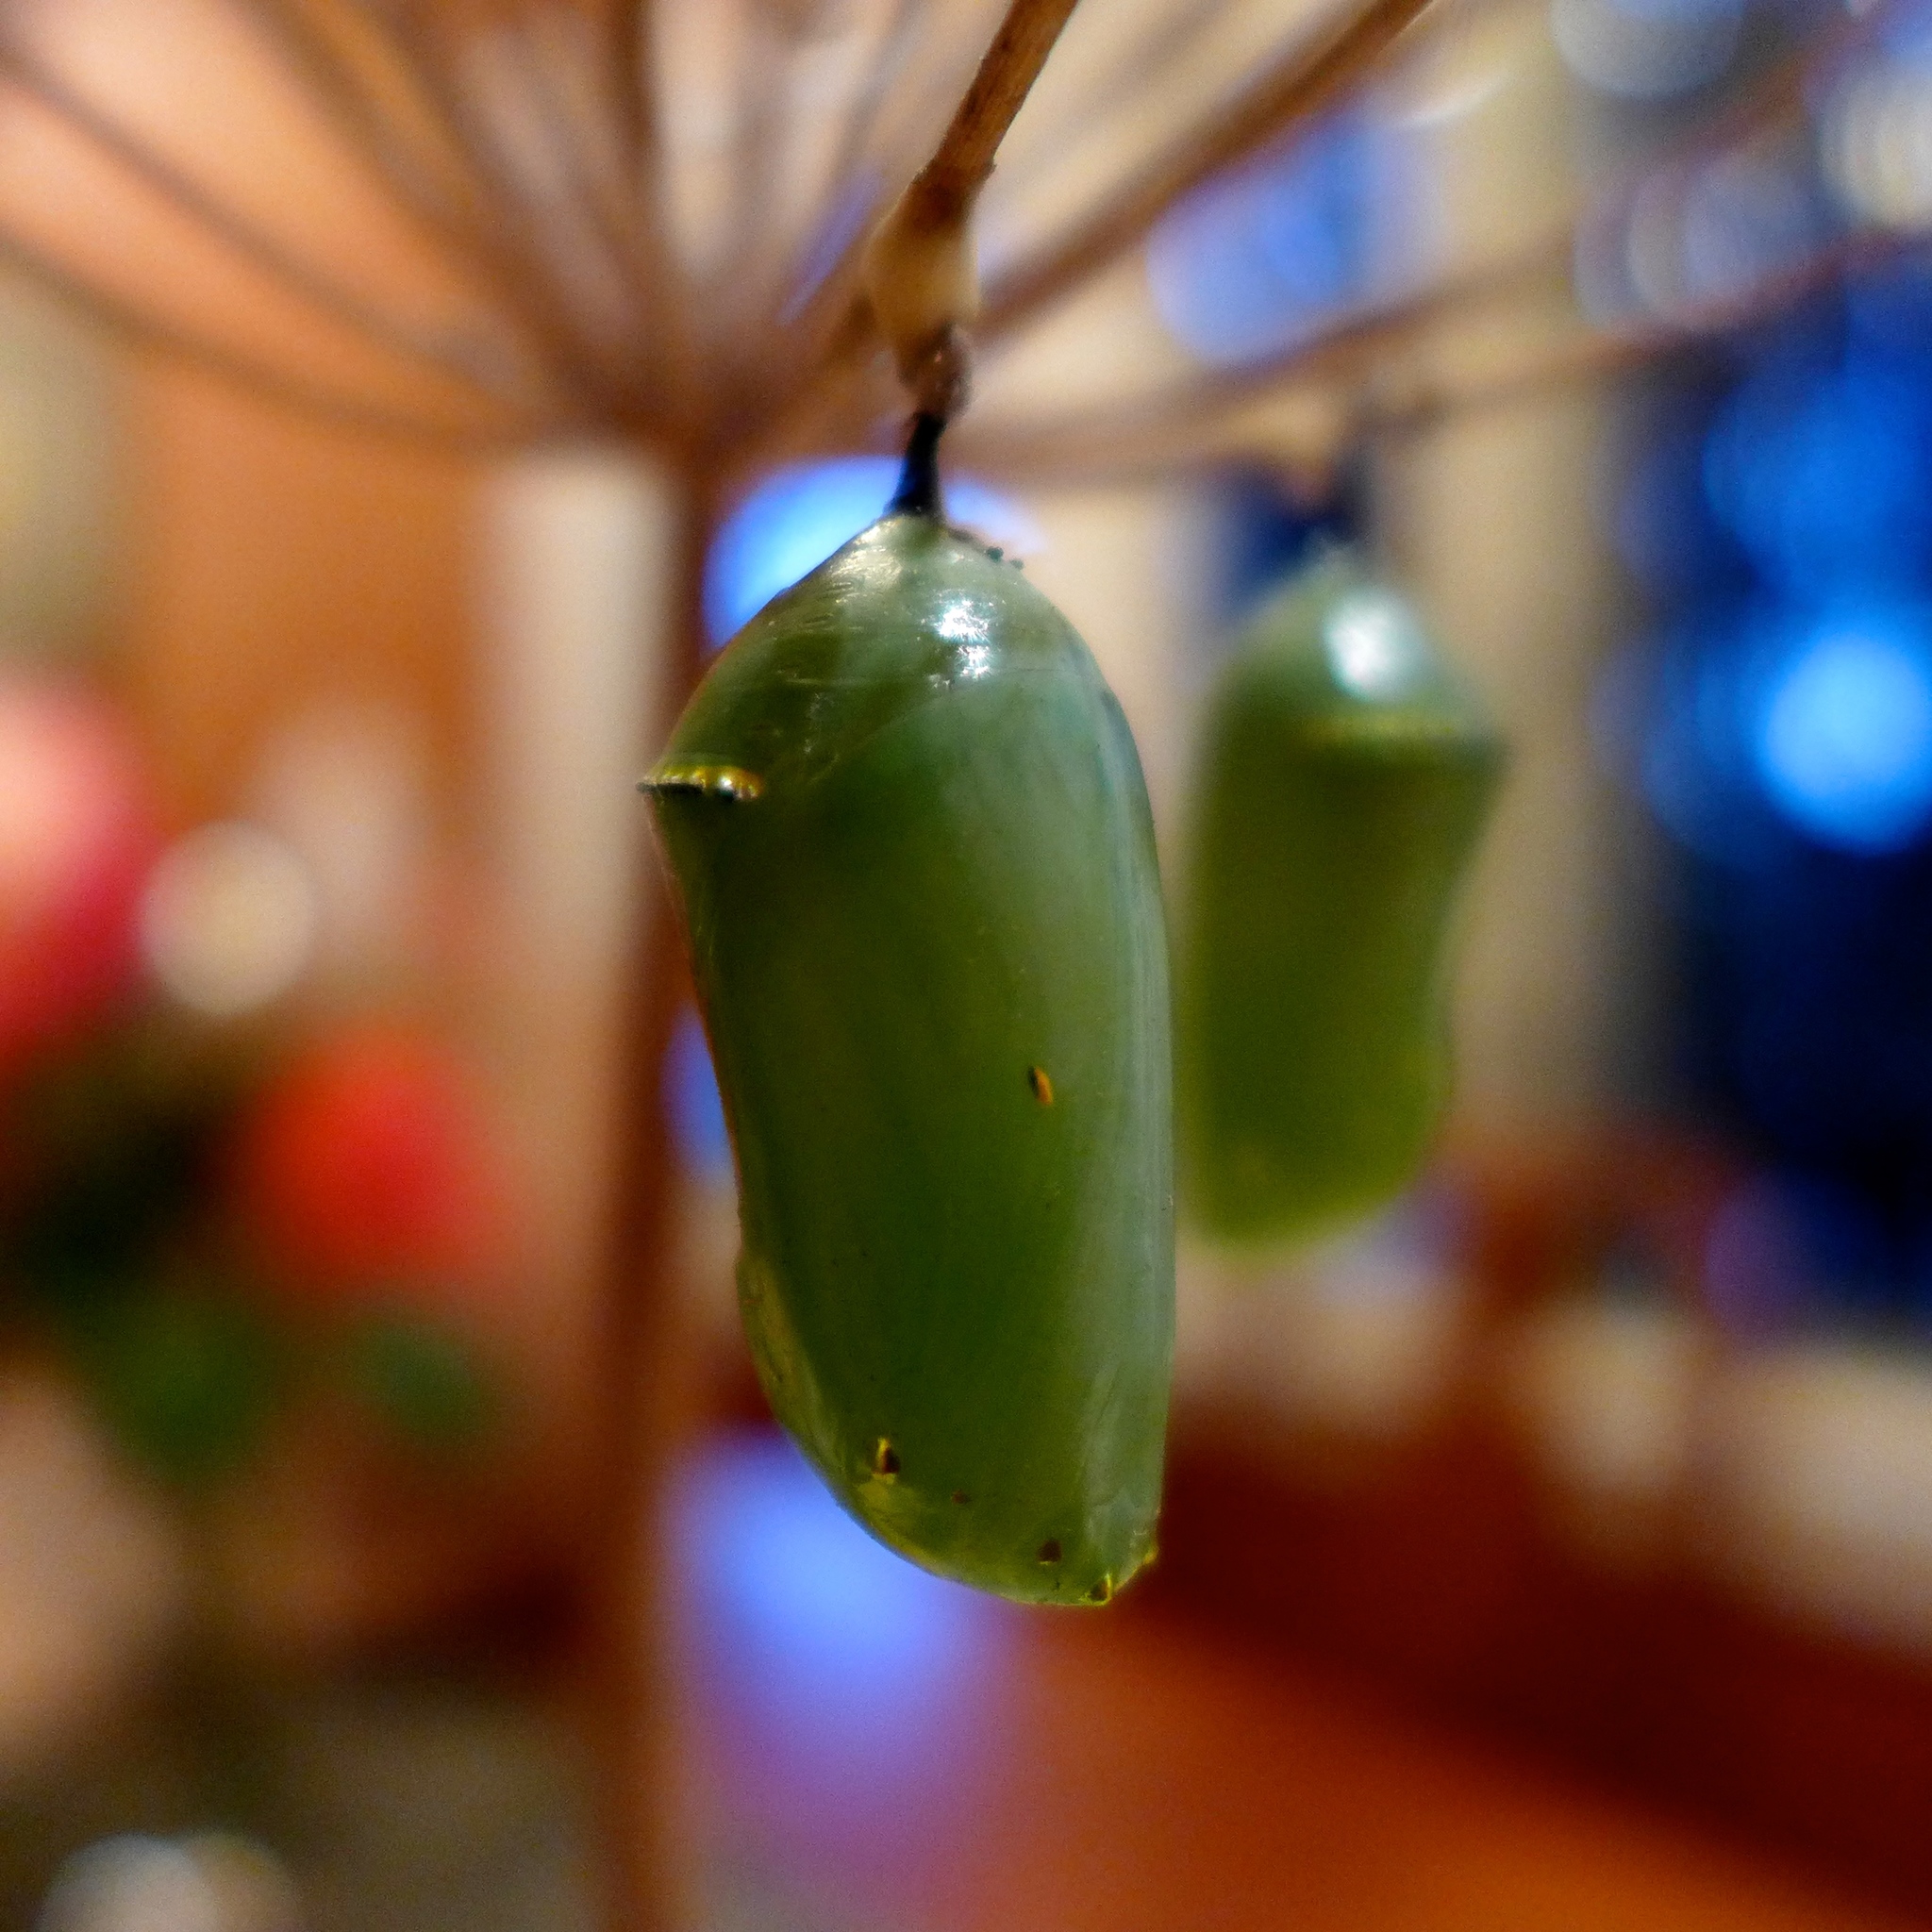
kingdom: Animalia
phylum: Arthropoda
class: Insecta
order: Lepidoptera
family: Nymphalidae
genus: Danaus
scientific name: Danaus plexippus
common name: Monarch
